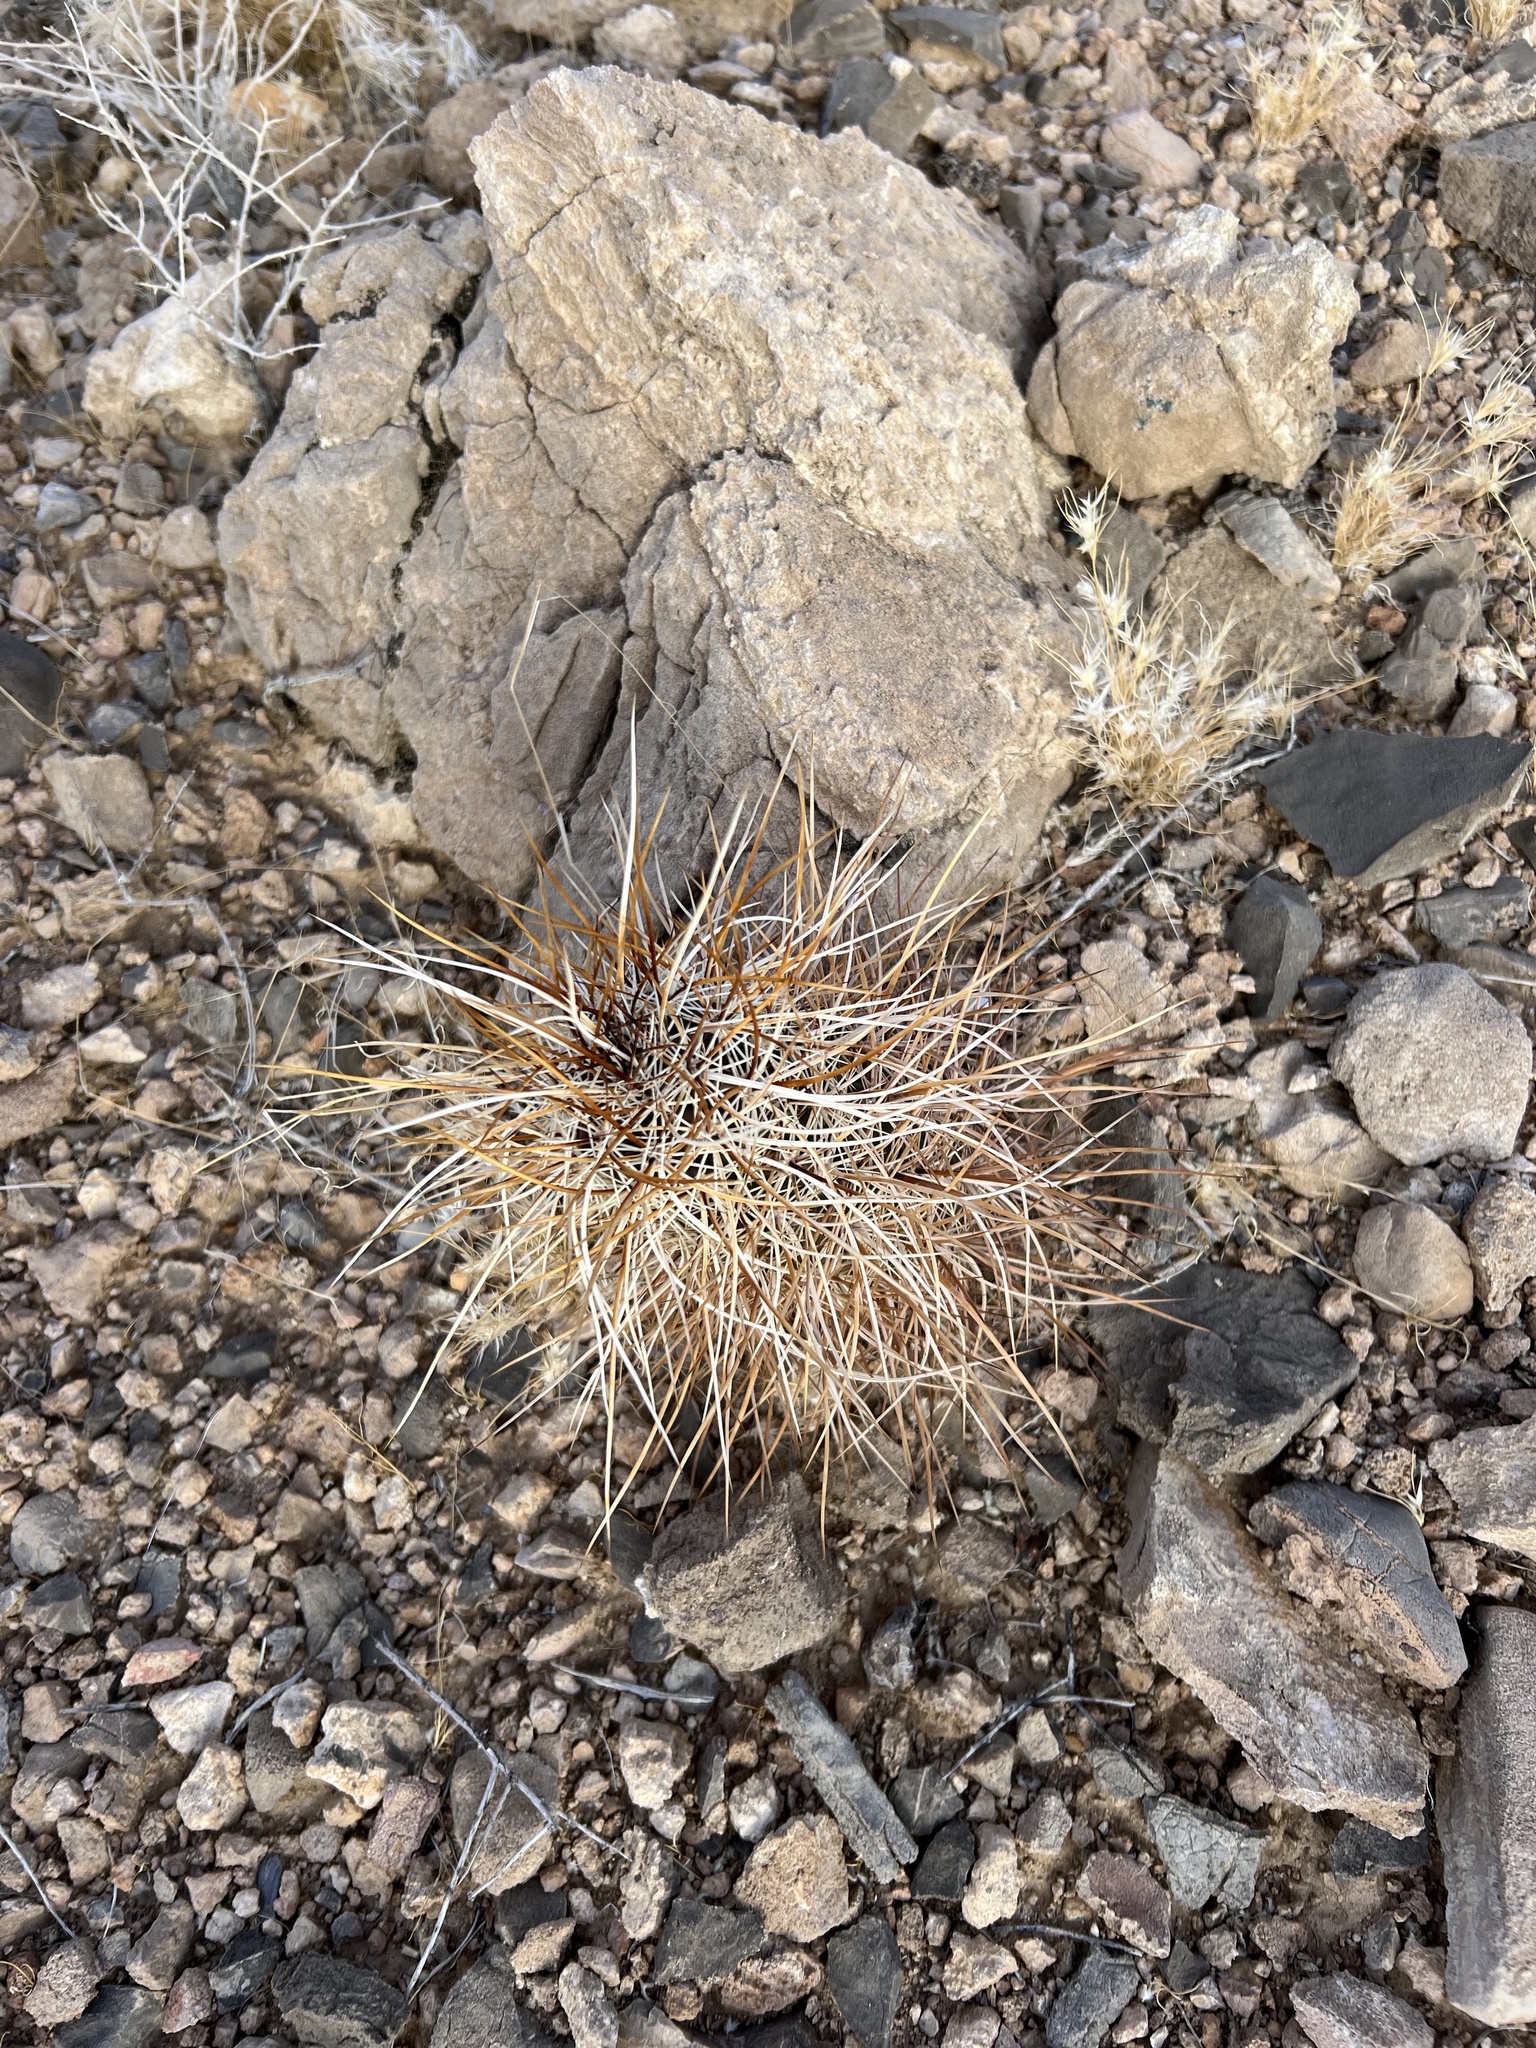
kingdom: Plantae
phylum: Tracheophyta
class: Magnoliopsida
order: Caryophyllales
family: Cactaceae
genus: Echinocereus
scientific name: Echinocereus engelmannii
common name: Engelmann's hedgehog cactus
